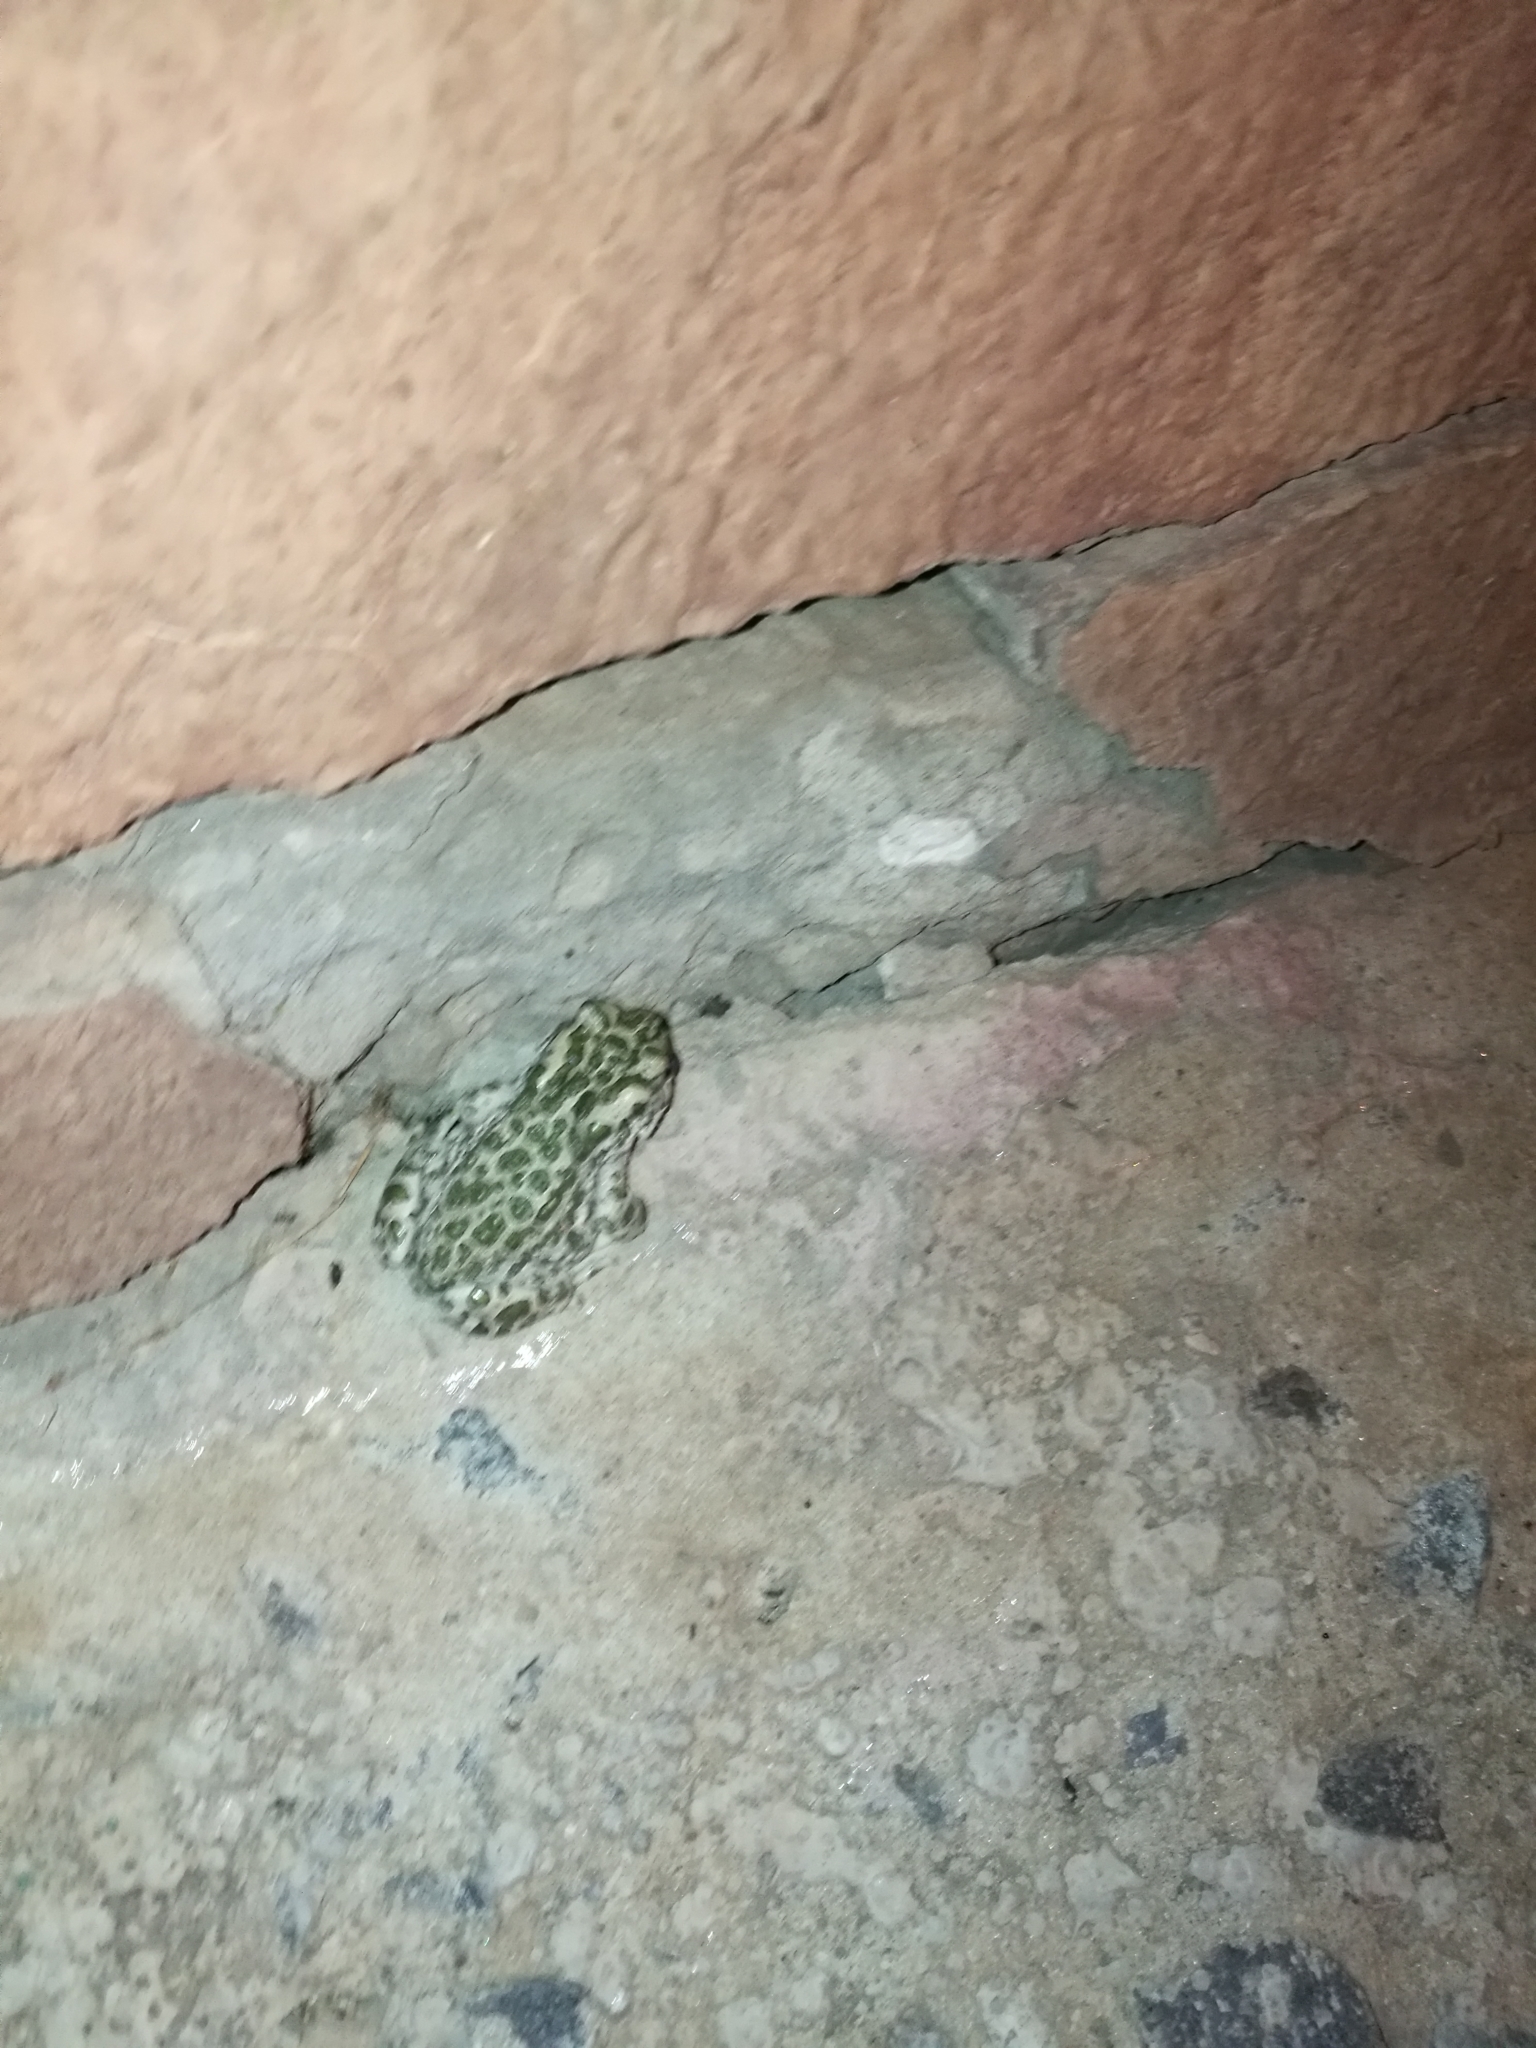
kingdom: Animalia
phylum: Chordata
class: Amphibia
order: Anura
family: Bufonidae
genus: Bufotes
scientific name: Bufotes viridis
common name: European green toad
